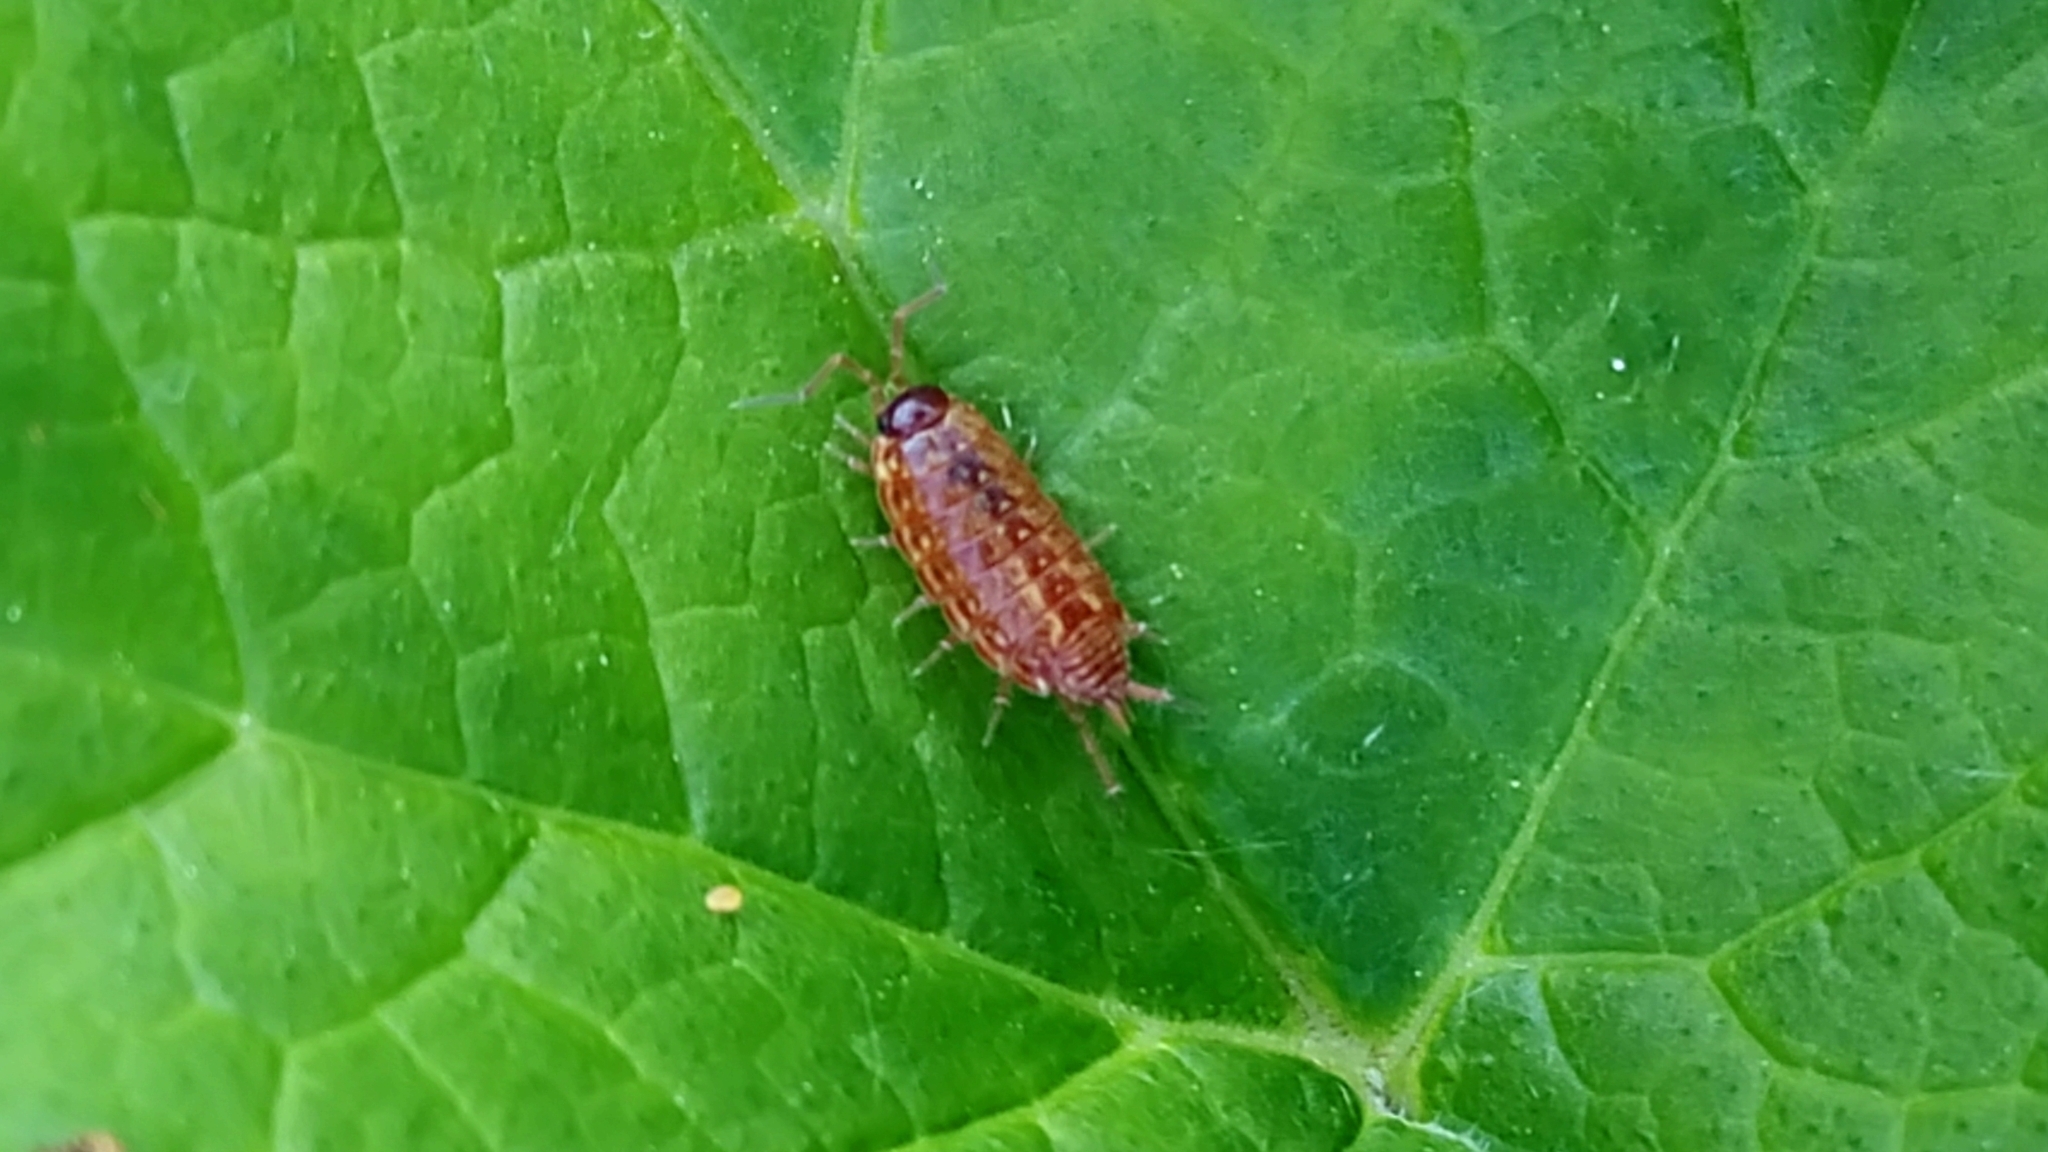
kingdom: Animalia
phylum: Arthropoda
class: Malacostraca
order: Isopoda
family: Philosciidae
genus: Philoscia
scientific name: Philoscia muscorum
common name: Common striped woodlouse
